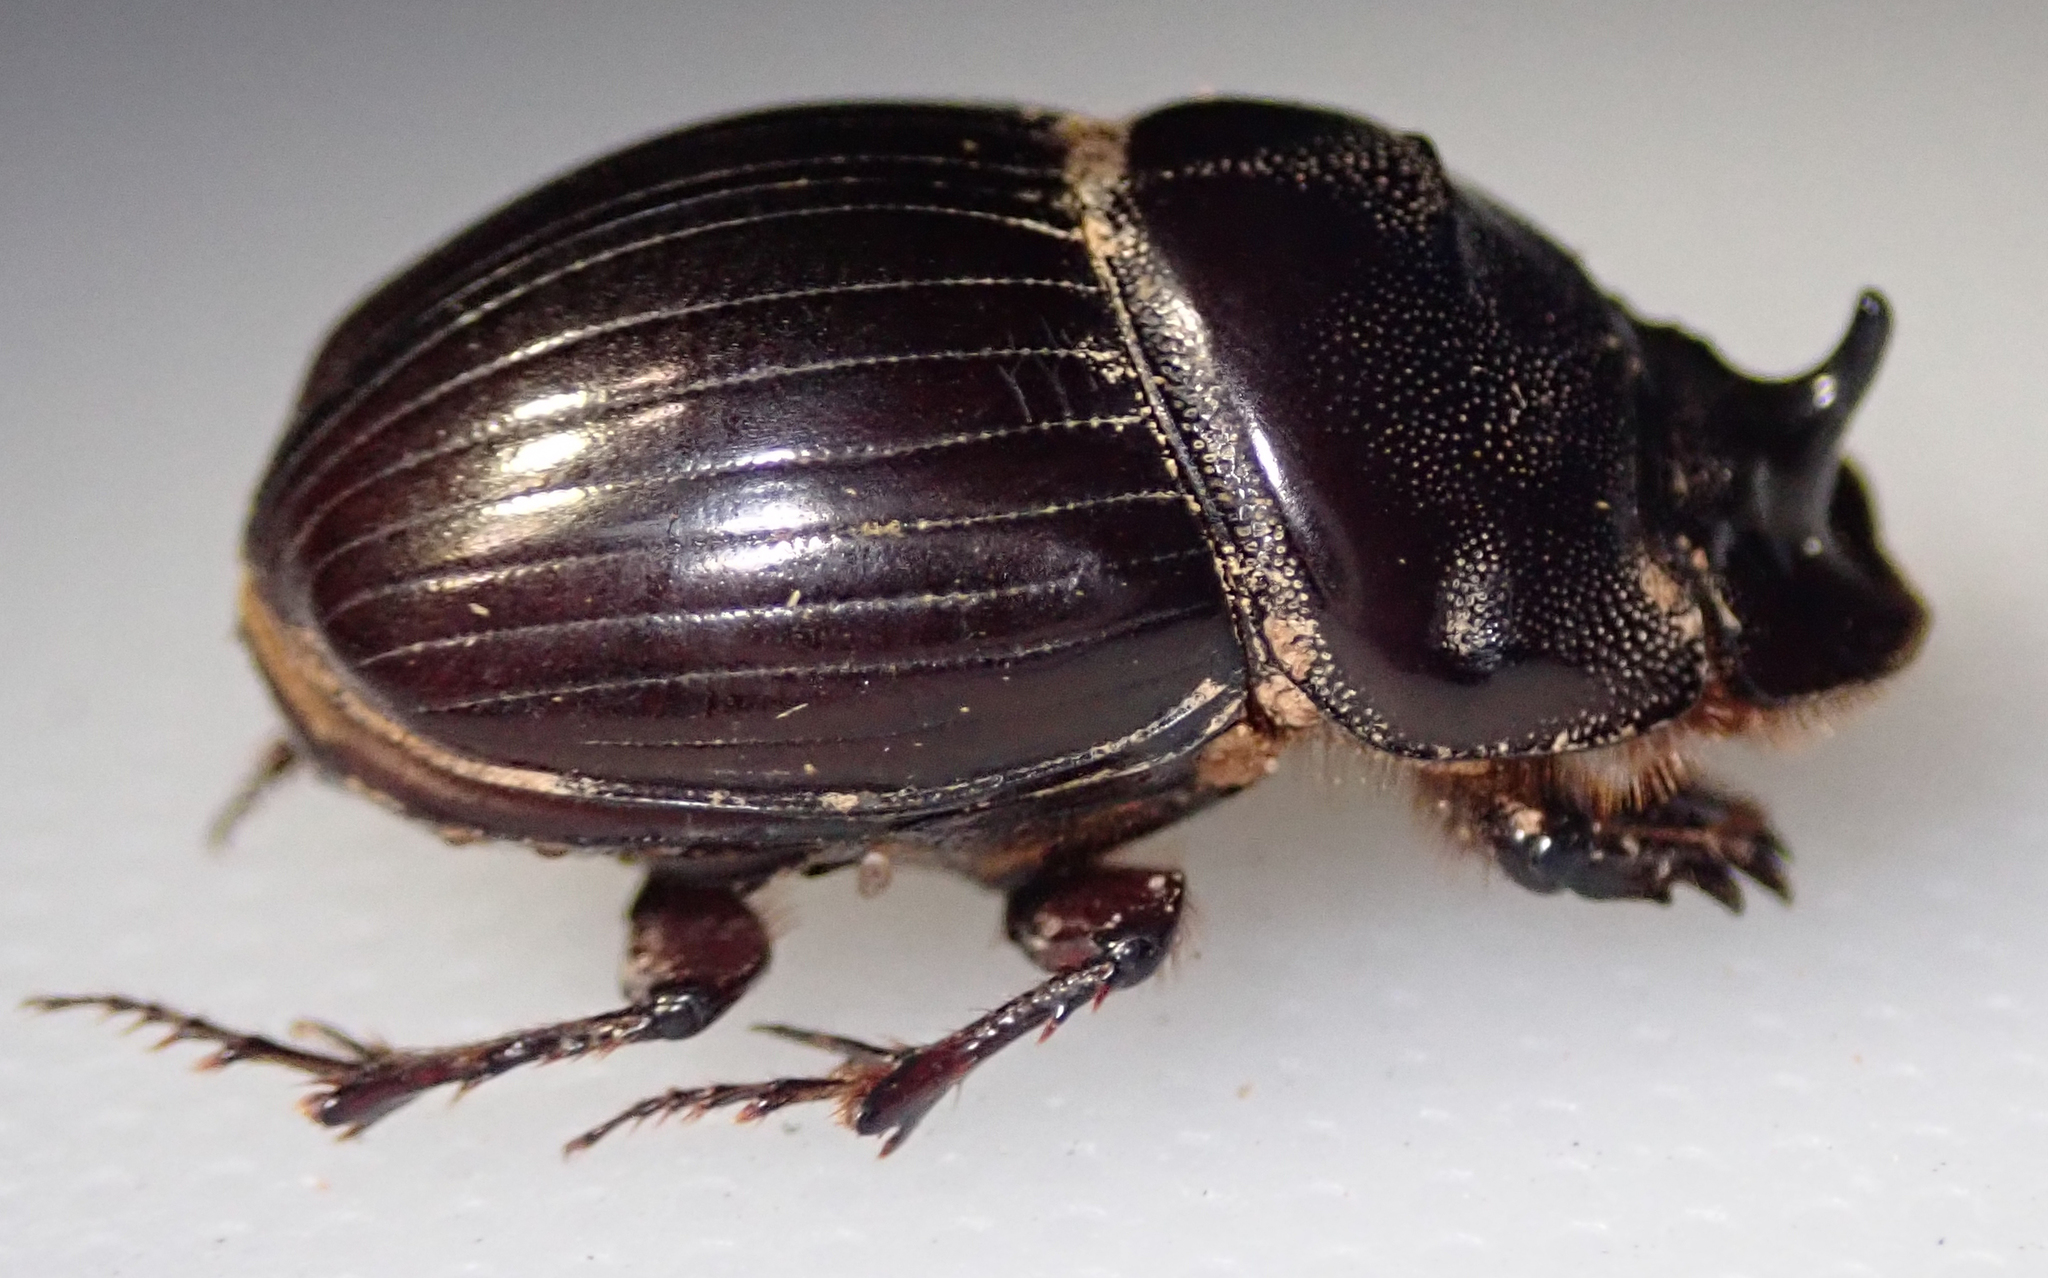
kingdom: Animalia
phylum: Arthropoda
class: Insecta
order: Coleoptera
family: Scarabaeidae
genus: Copris
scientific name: Copris cassius
